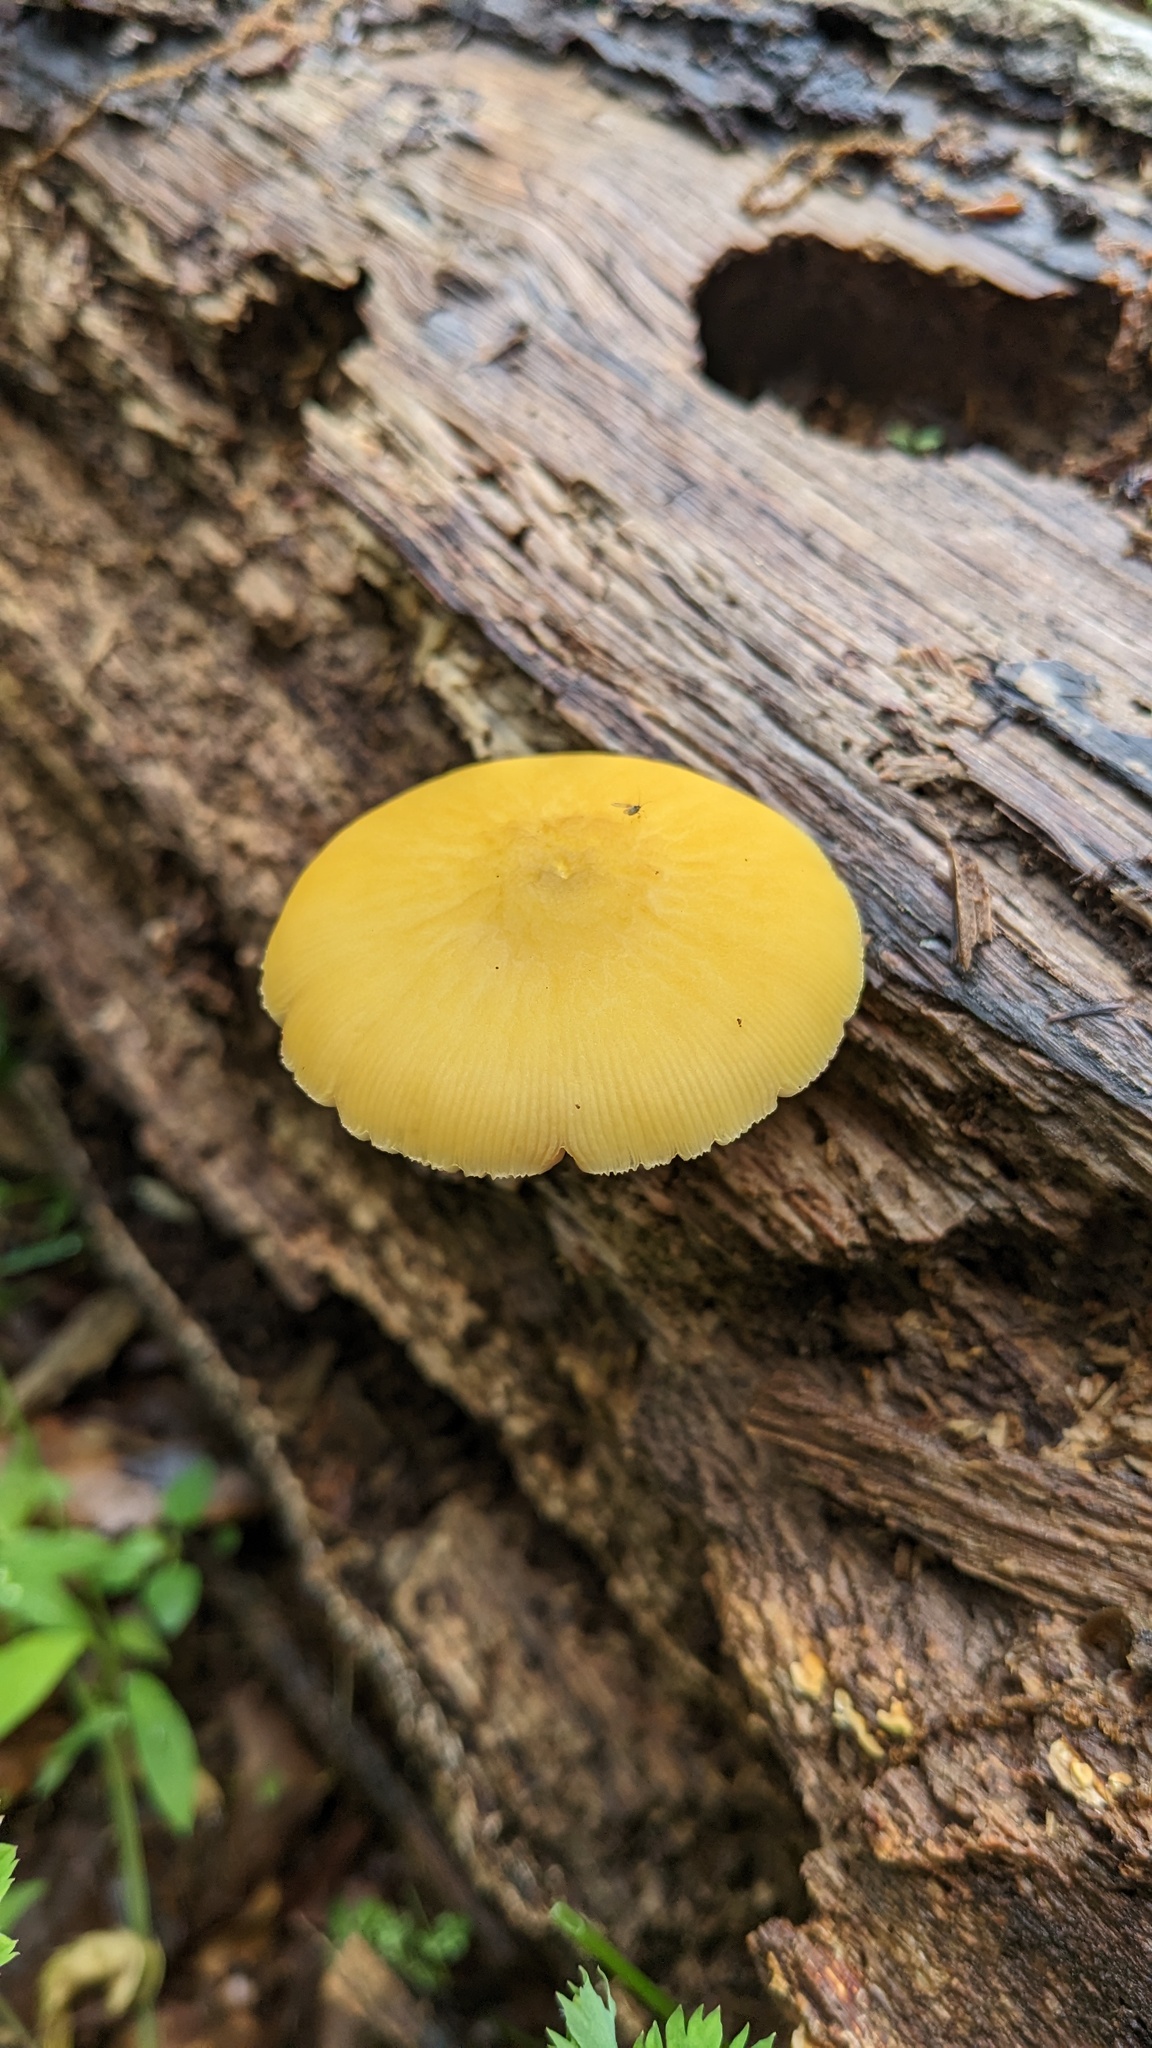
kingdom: Fungi
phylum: Basidiomycota
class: Agaricomycetes
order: Agaricales
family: Pluteaceae
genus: Pluteus
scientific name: Pluteus leoninus
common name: Lion shield
